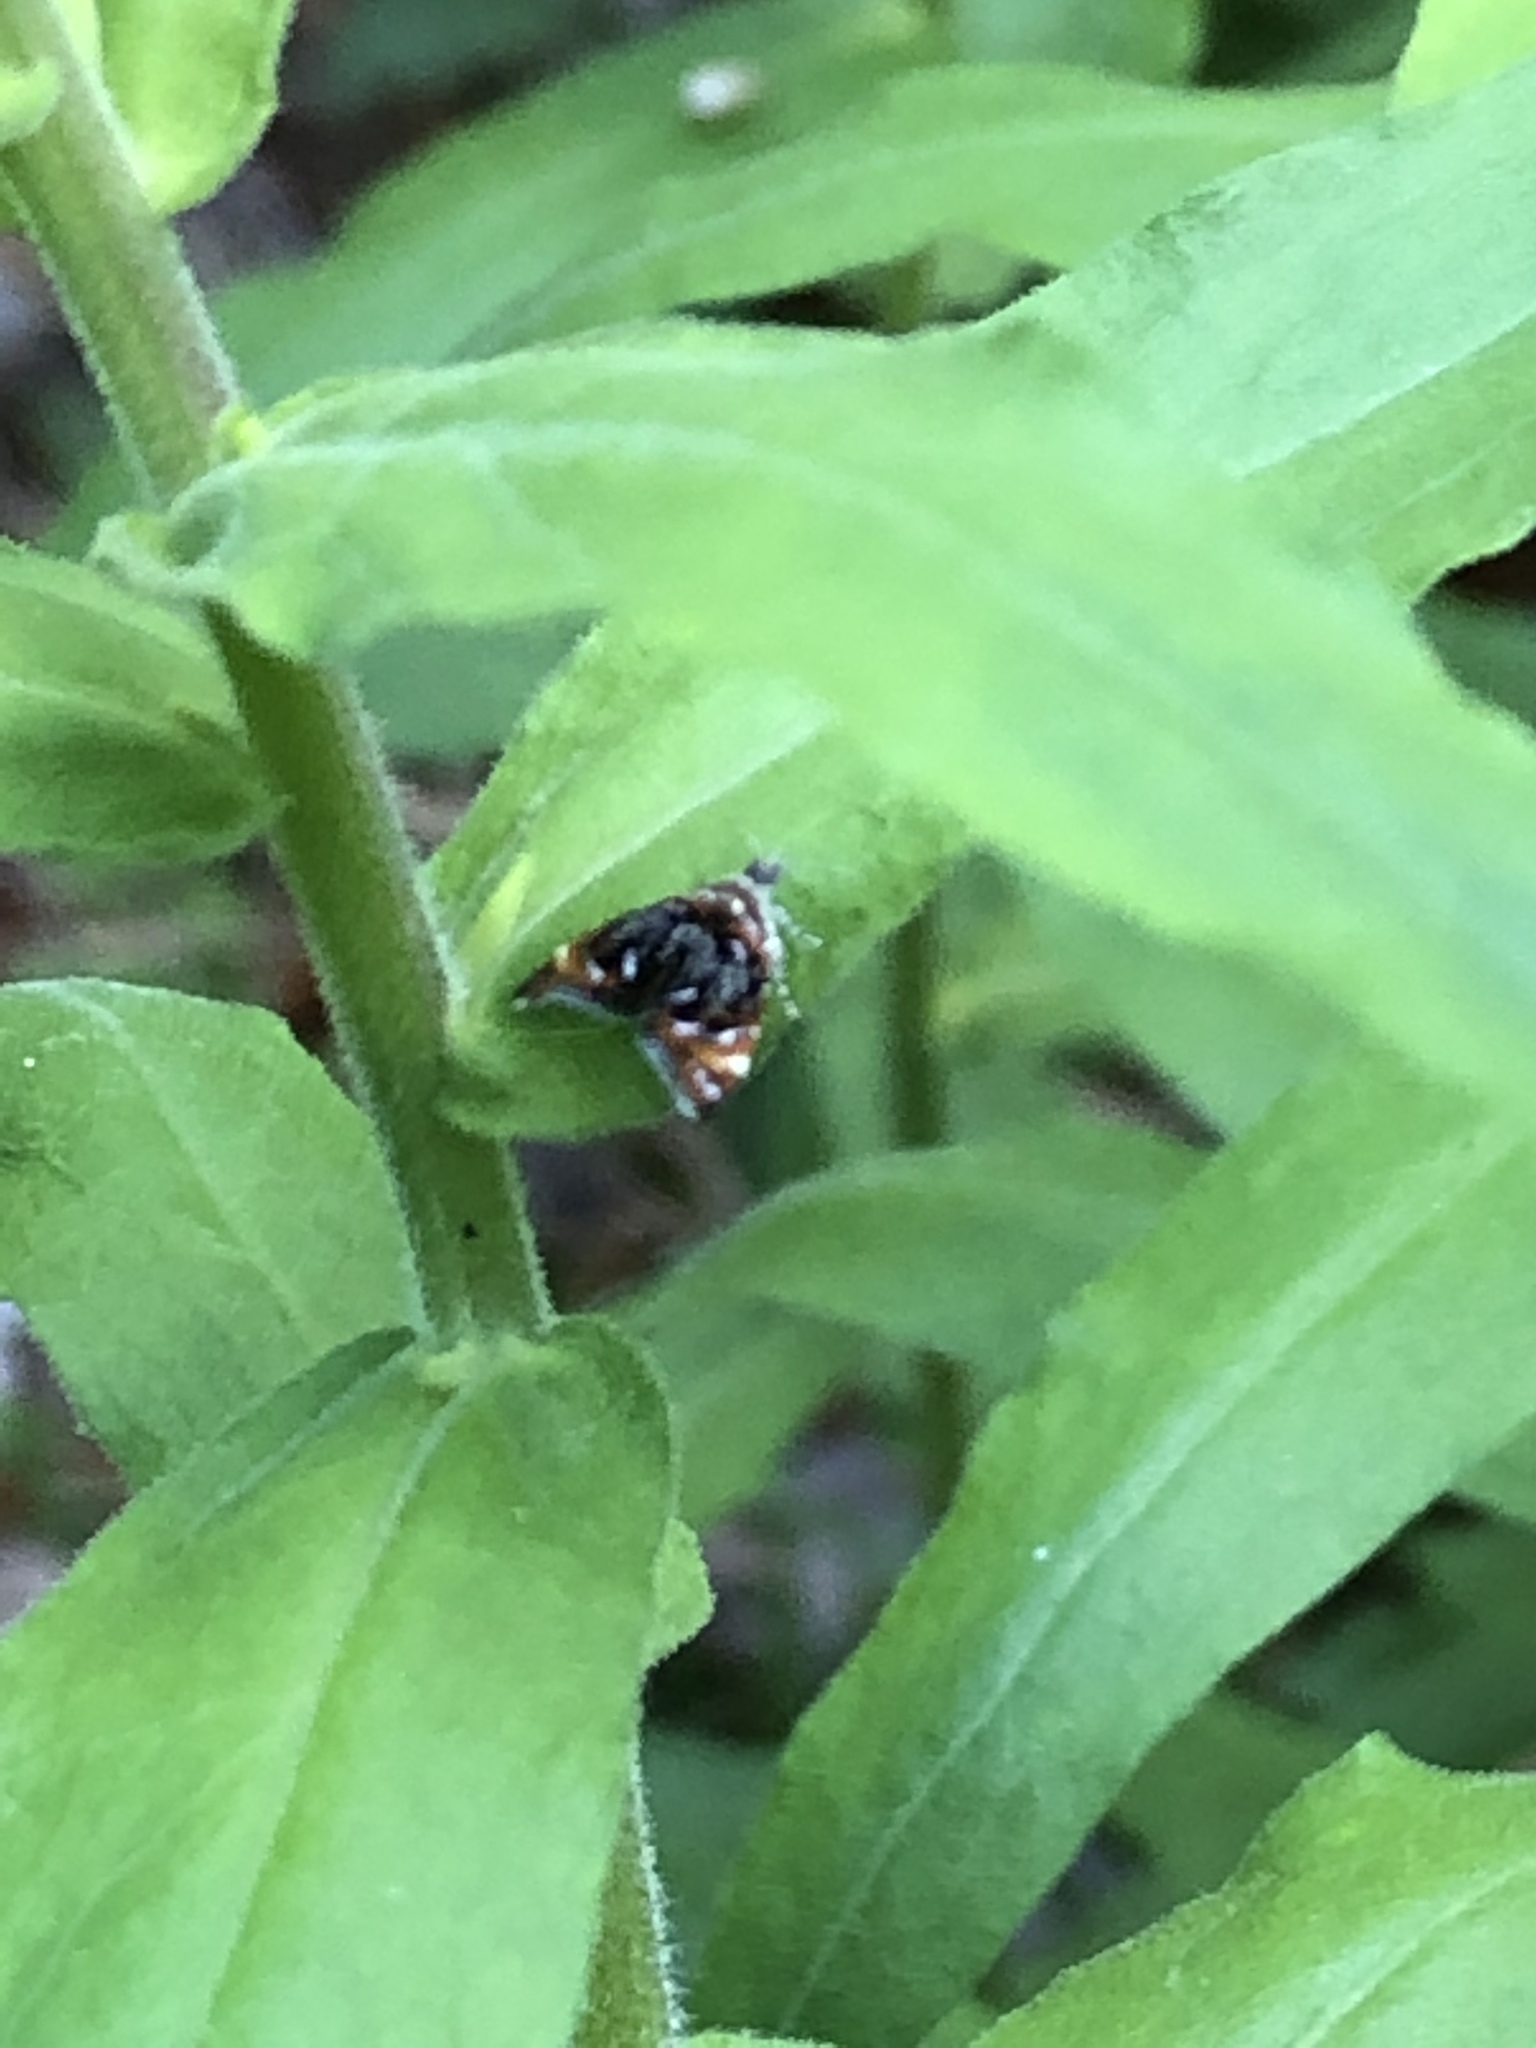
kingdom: Animalia
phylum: Arthropoda
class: Insecta
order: Lepidoptera
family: Choreutidae
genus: Prochoreutis
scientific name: Prochoreutis inflatella
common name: Skullcap skeletonizer moth
